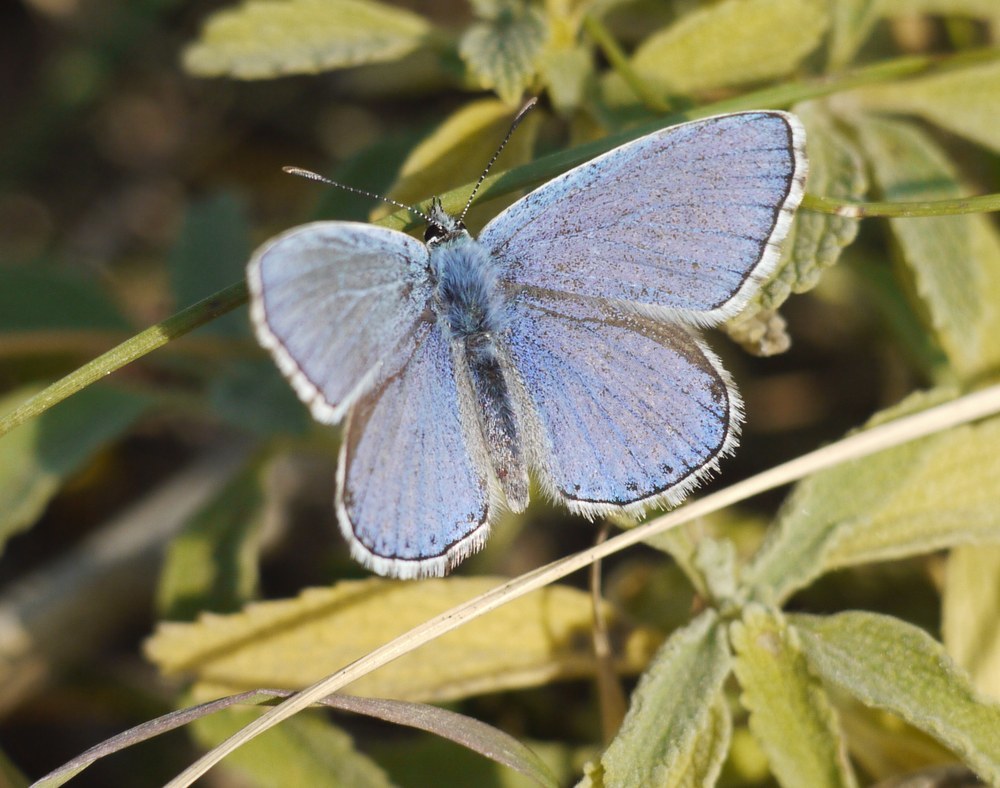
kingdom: Animalia
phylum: Arthropoda
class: Insecta
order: Lepidoptera
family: Lycaenidae
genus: Lysandra
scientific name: Lysandra bellargus
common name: Adonis blue
